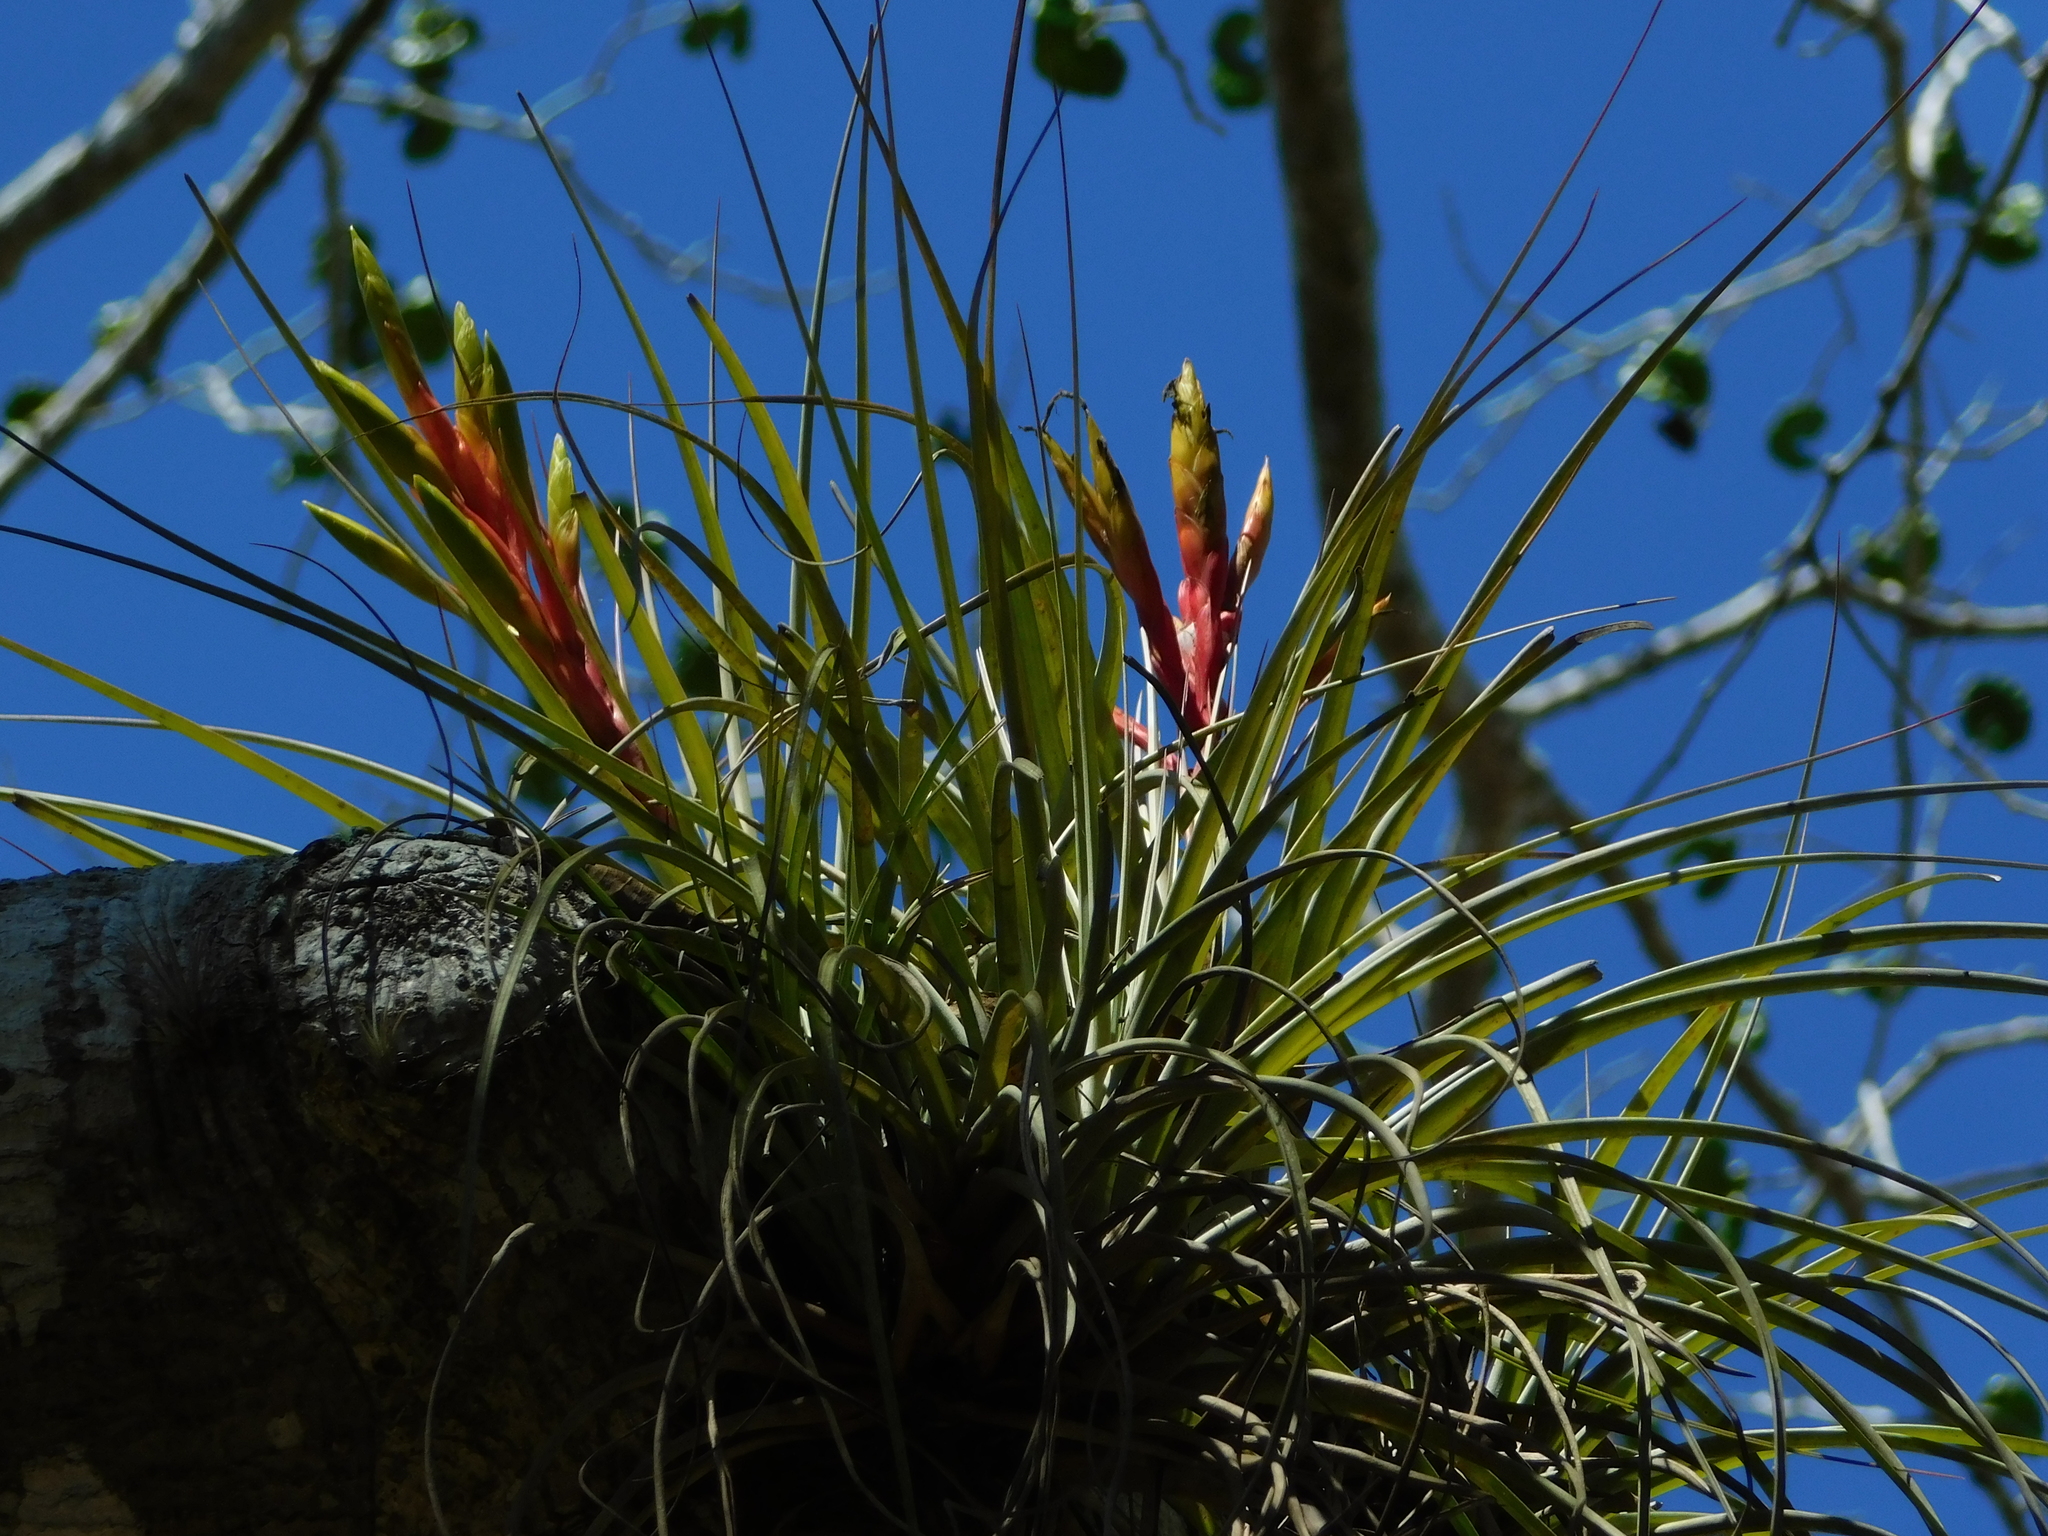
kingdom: Plantae
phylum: Tracheophyta
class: Liliopsida
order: Poales
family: Bromeliaceae
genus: Tillandsia
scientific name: Tillandsia fasciculata
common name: Giant airplant
